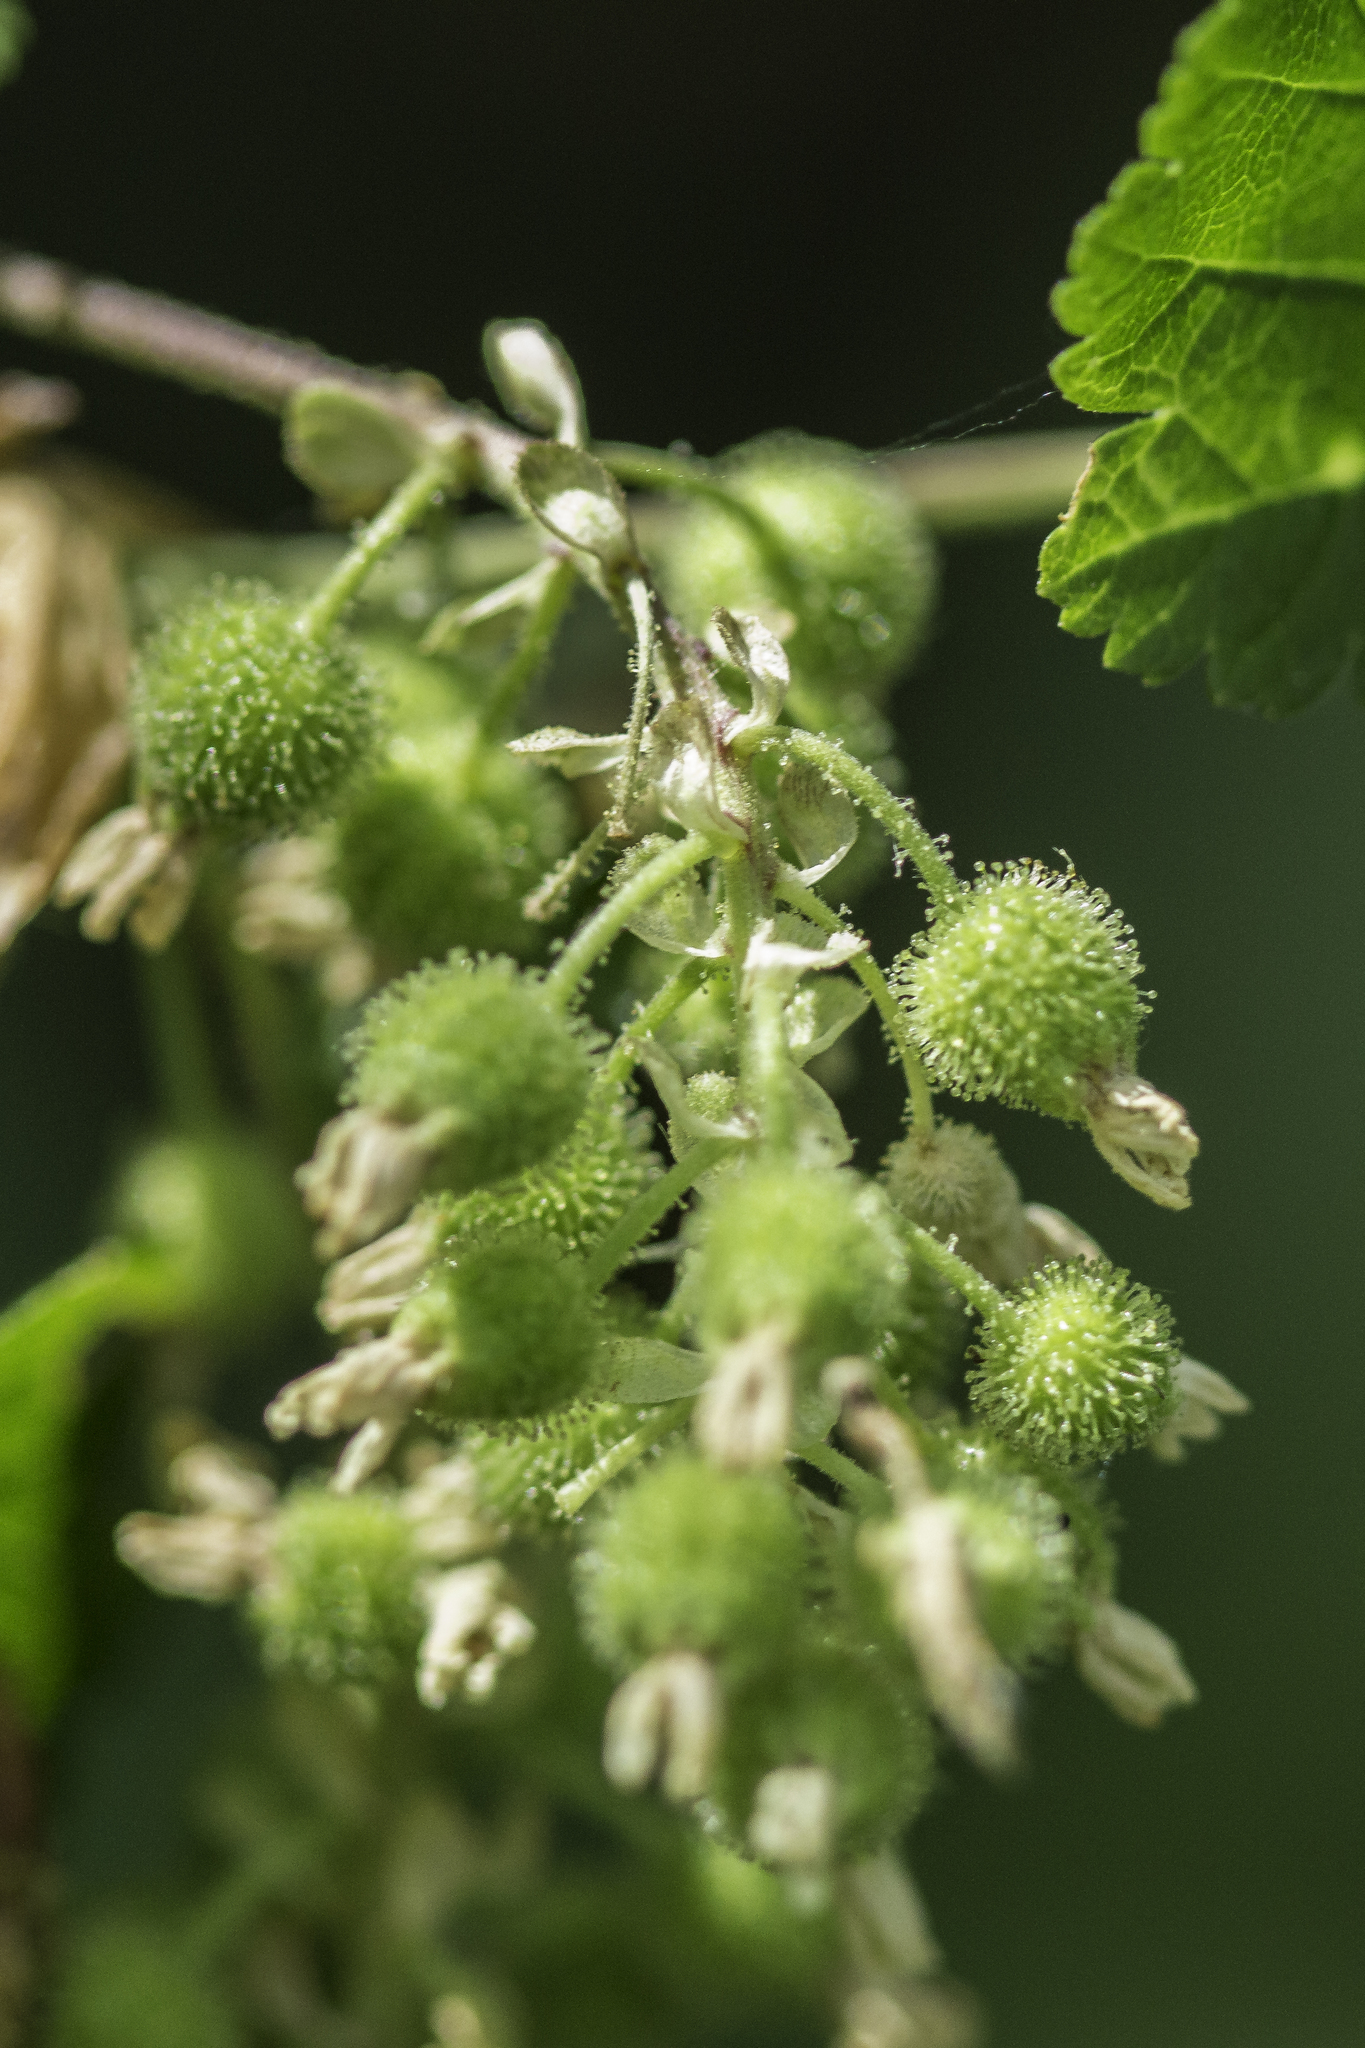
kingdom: Plantae
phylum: Tracheophyta
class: Magnoliopsida
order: Saxifragales
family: Grossulariaceae
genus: Ribes
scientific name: Ribes wolfii
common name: Rothrock currant
